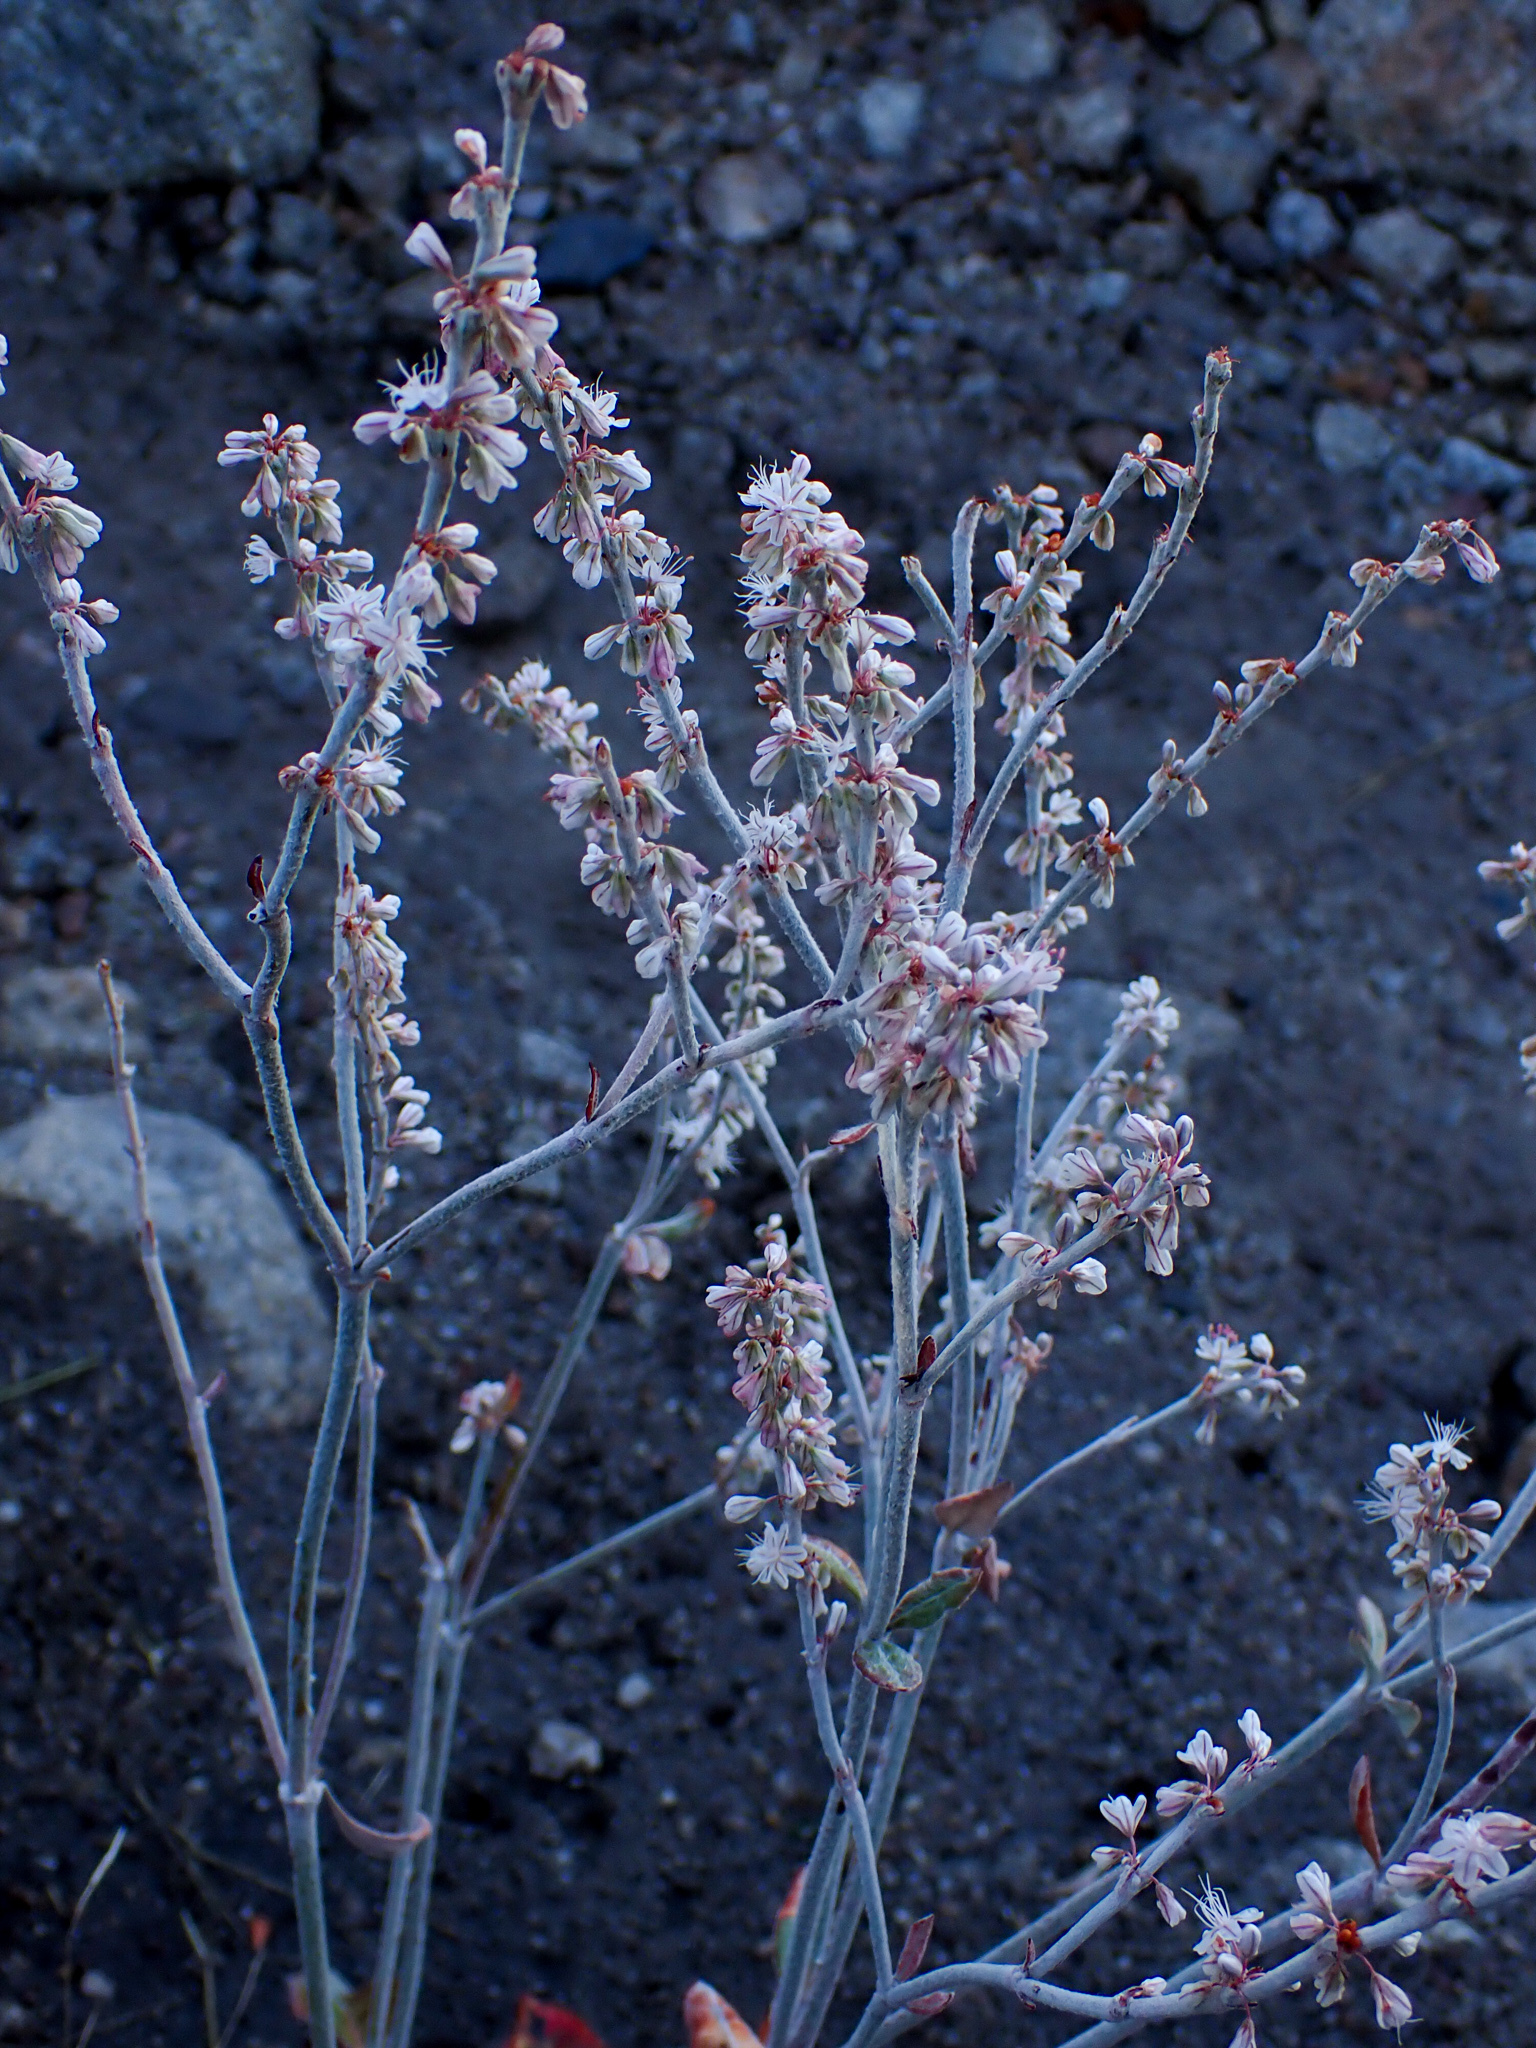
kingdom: Plantae
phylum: Tracheophyta
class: Magnoliopsida
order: Caryophyllales
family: Polygonaceae
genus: Eriogonum
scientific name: Eriogonum racemosum
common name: Redroot wild buckwheat
